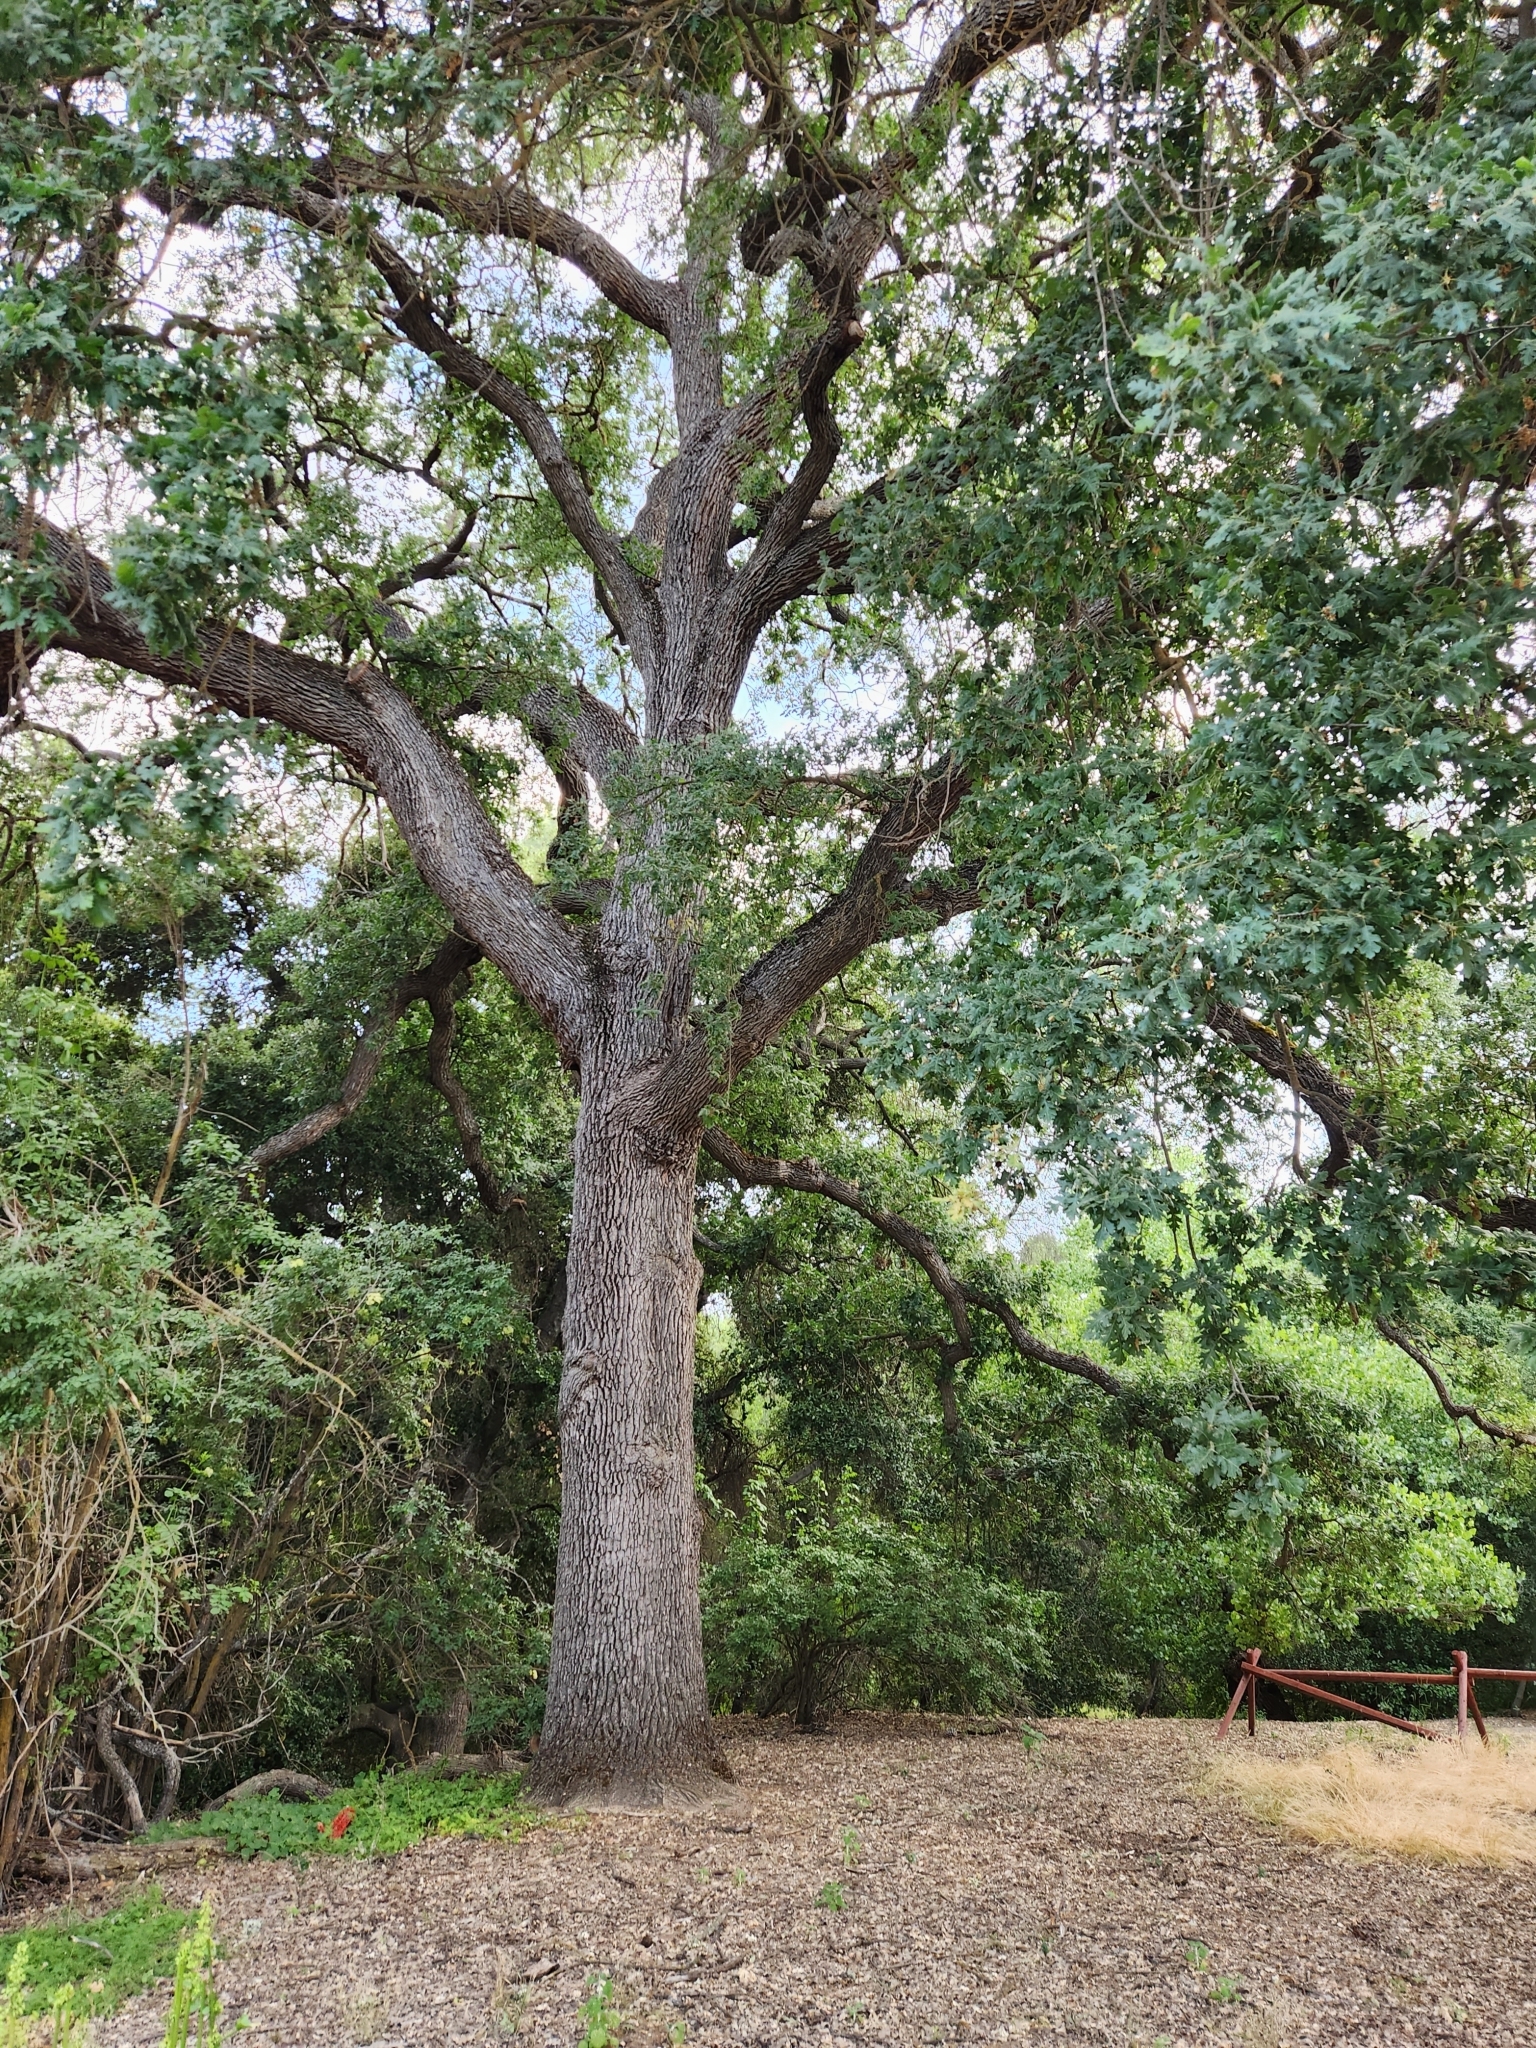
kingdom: Plantae
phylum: Tracheophyta
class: Magnoliopsida
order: Fagales
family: Fagaceae
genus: Quercus
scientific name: Quercus lobata
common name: Valley oak
